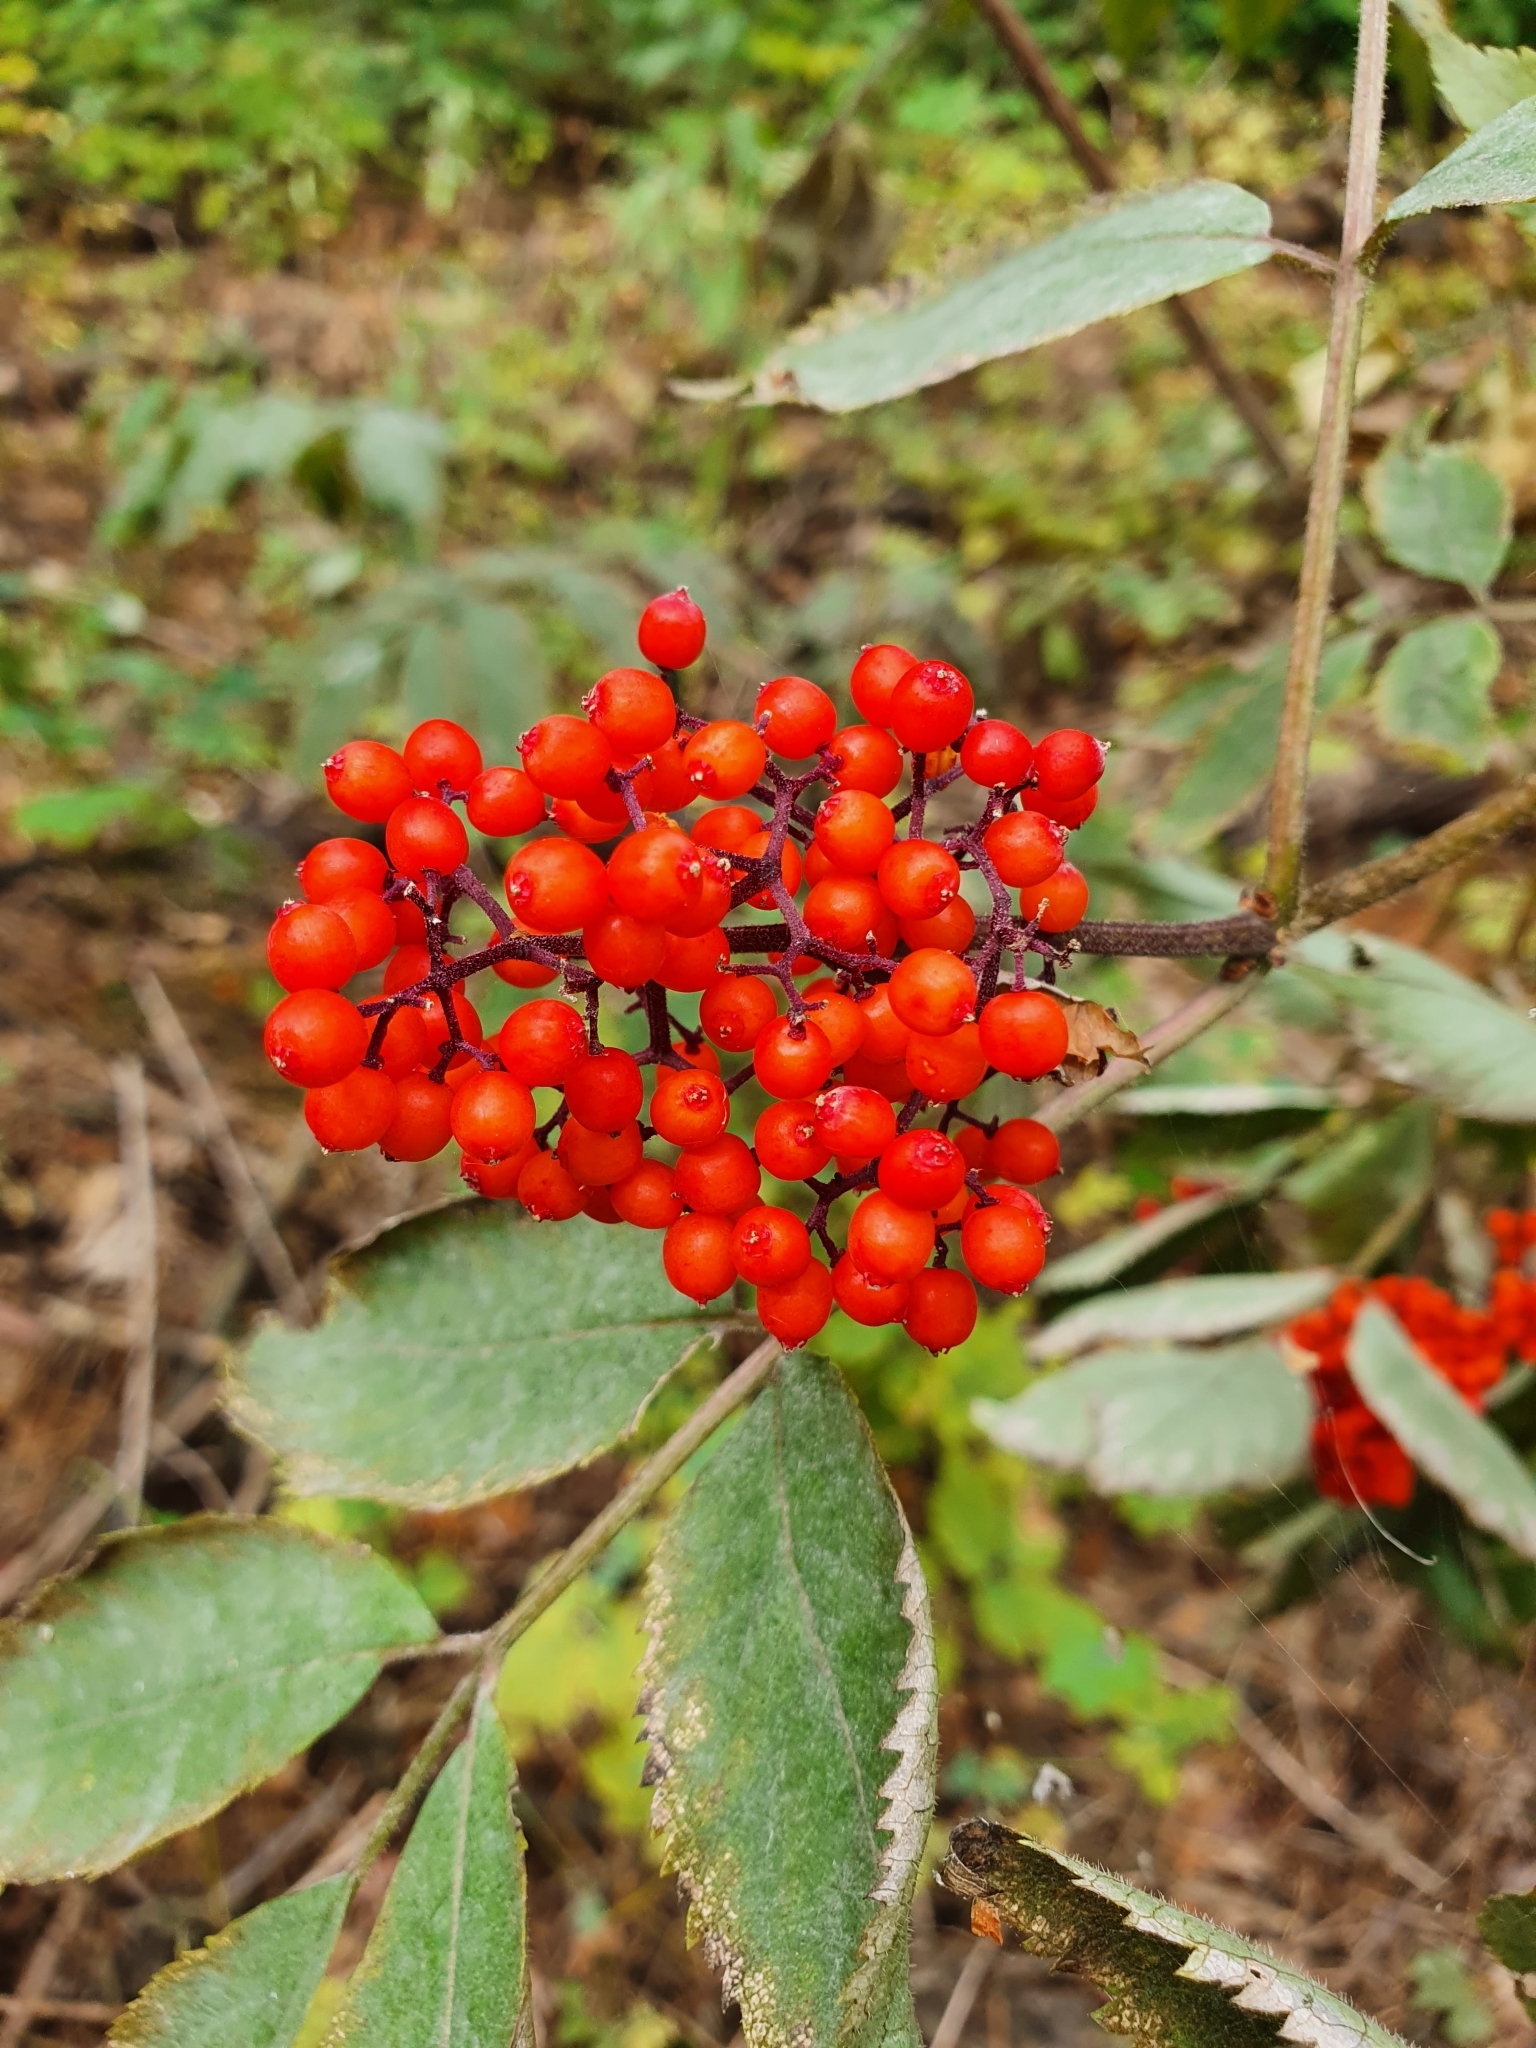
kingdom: Plantae
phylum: Tracheophyta
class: Magnoliopsida
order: Dipsacales
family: Viburnaceae
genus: Sambucus
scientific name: Sambucus racemosa
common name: Red-berried elder
